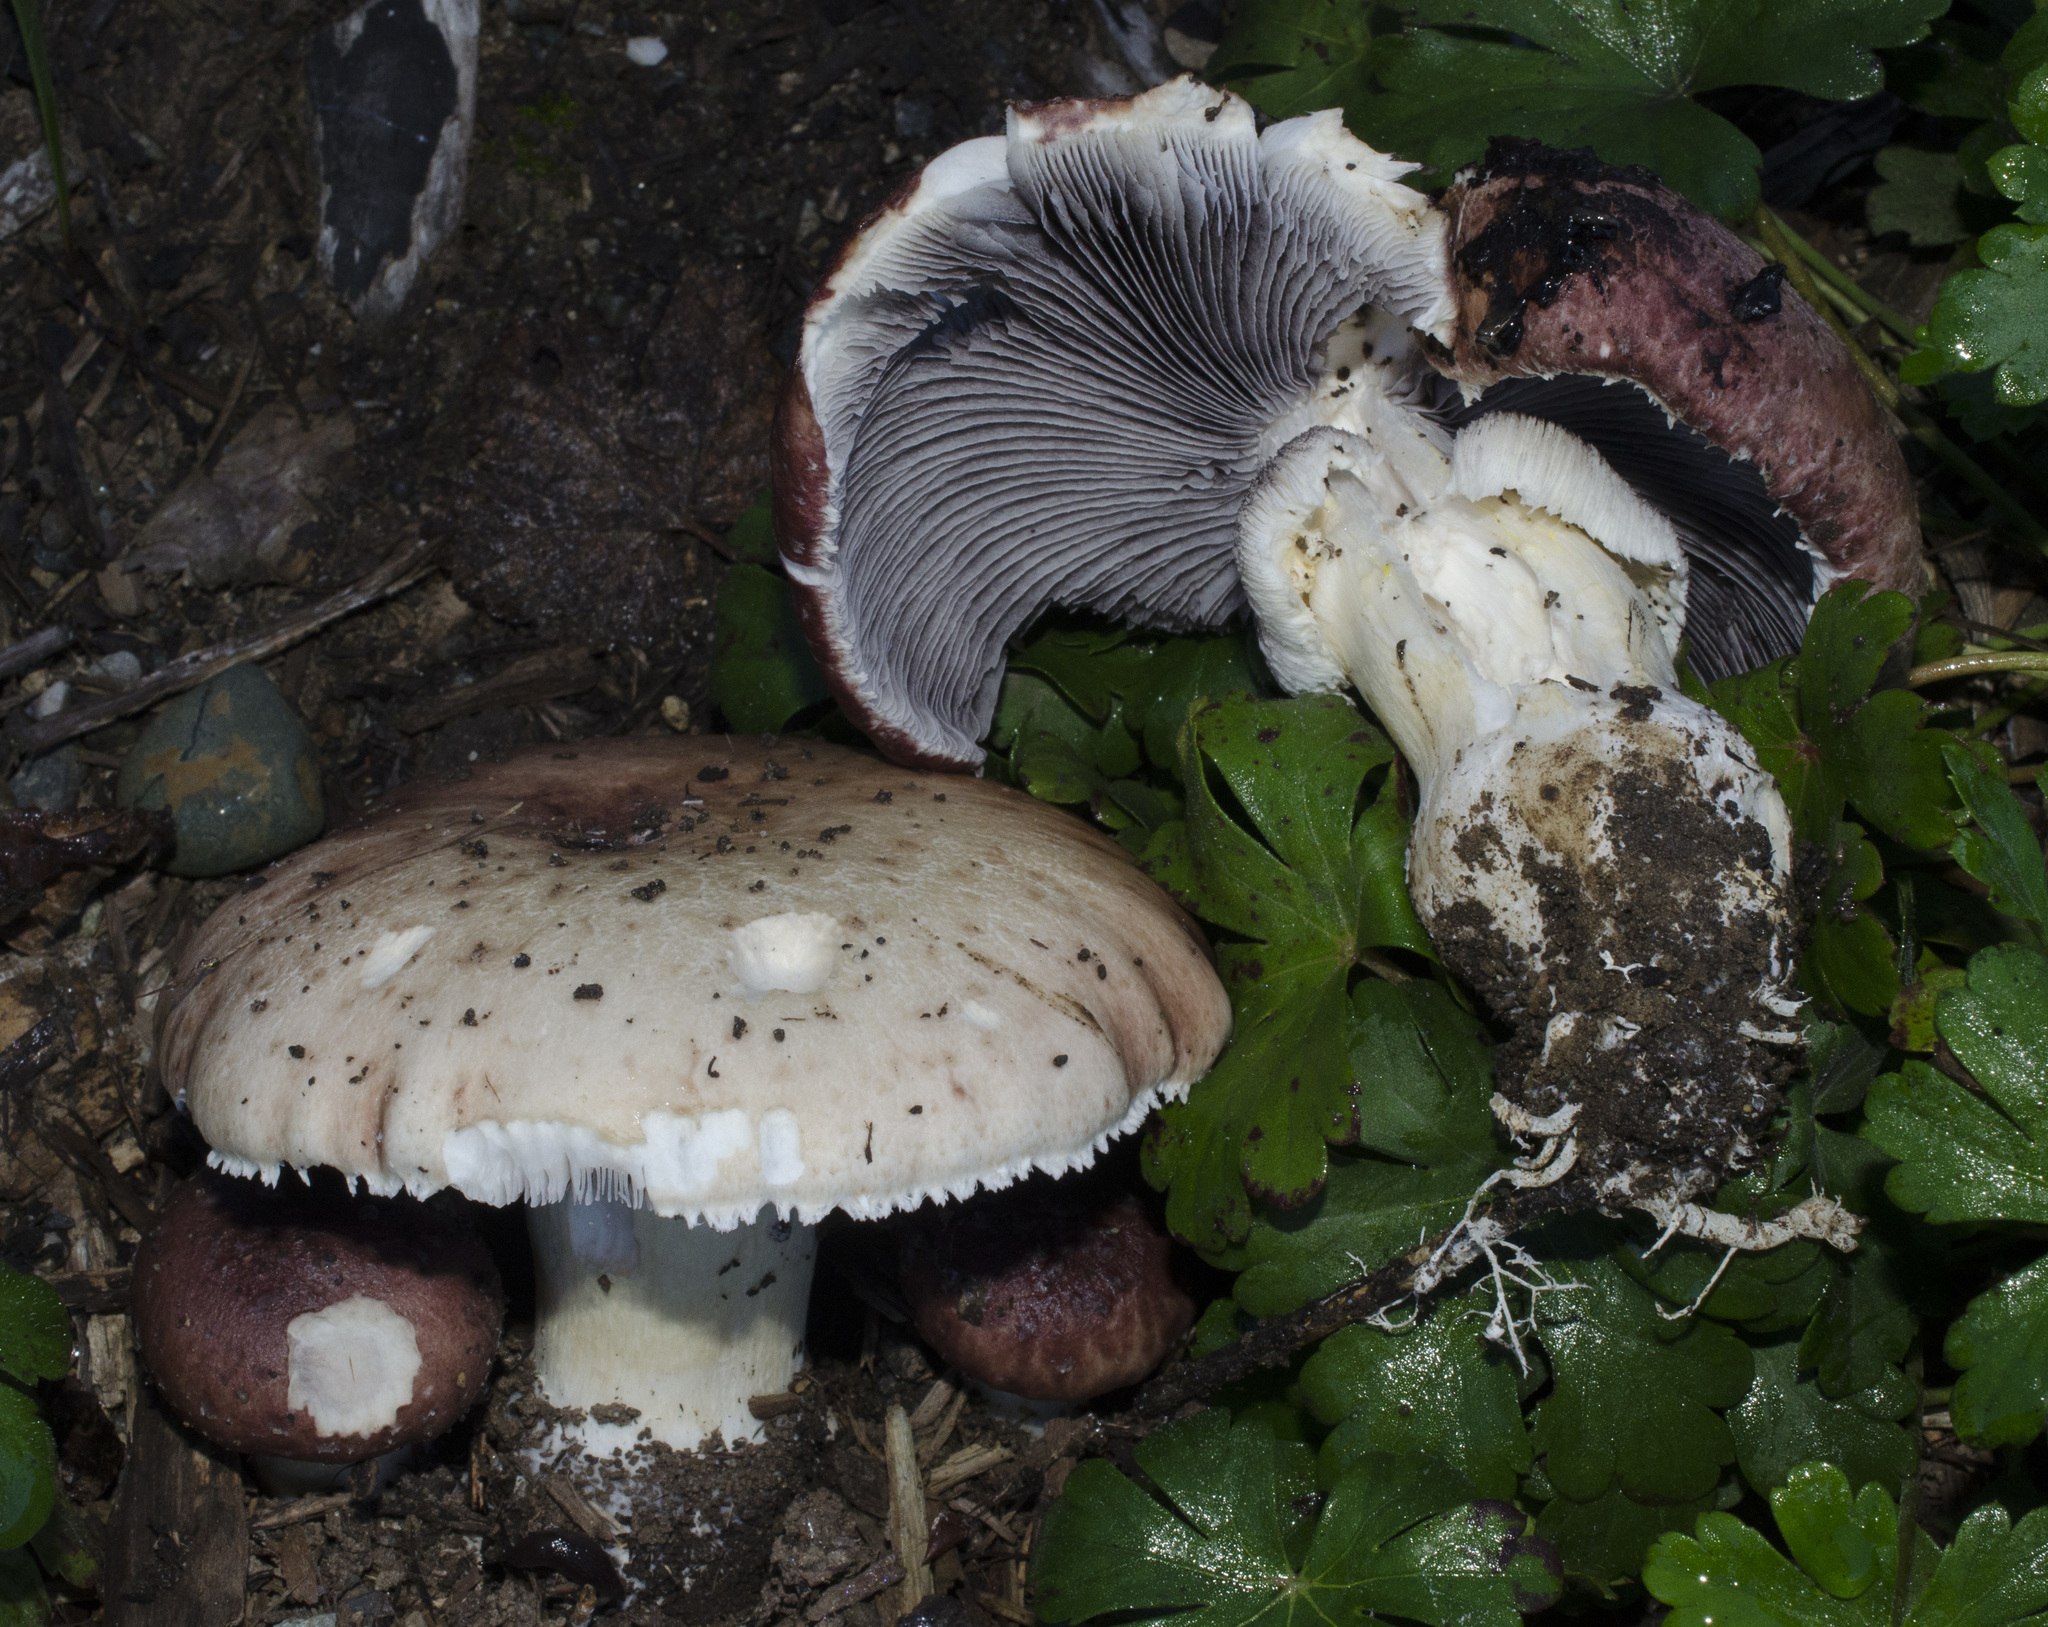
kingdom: Fungi
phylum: Basidiomycota
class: Agaricomycetes
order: Agaricales
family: Strophariaceae
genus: Stropharia
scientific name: Stropharia rugosoannulata
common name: Wine roundhead
